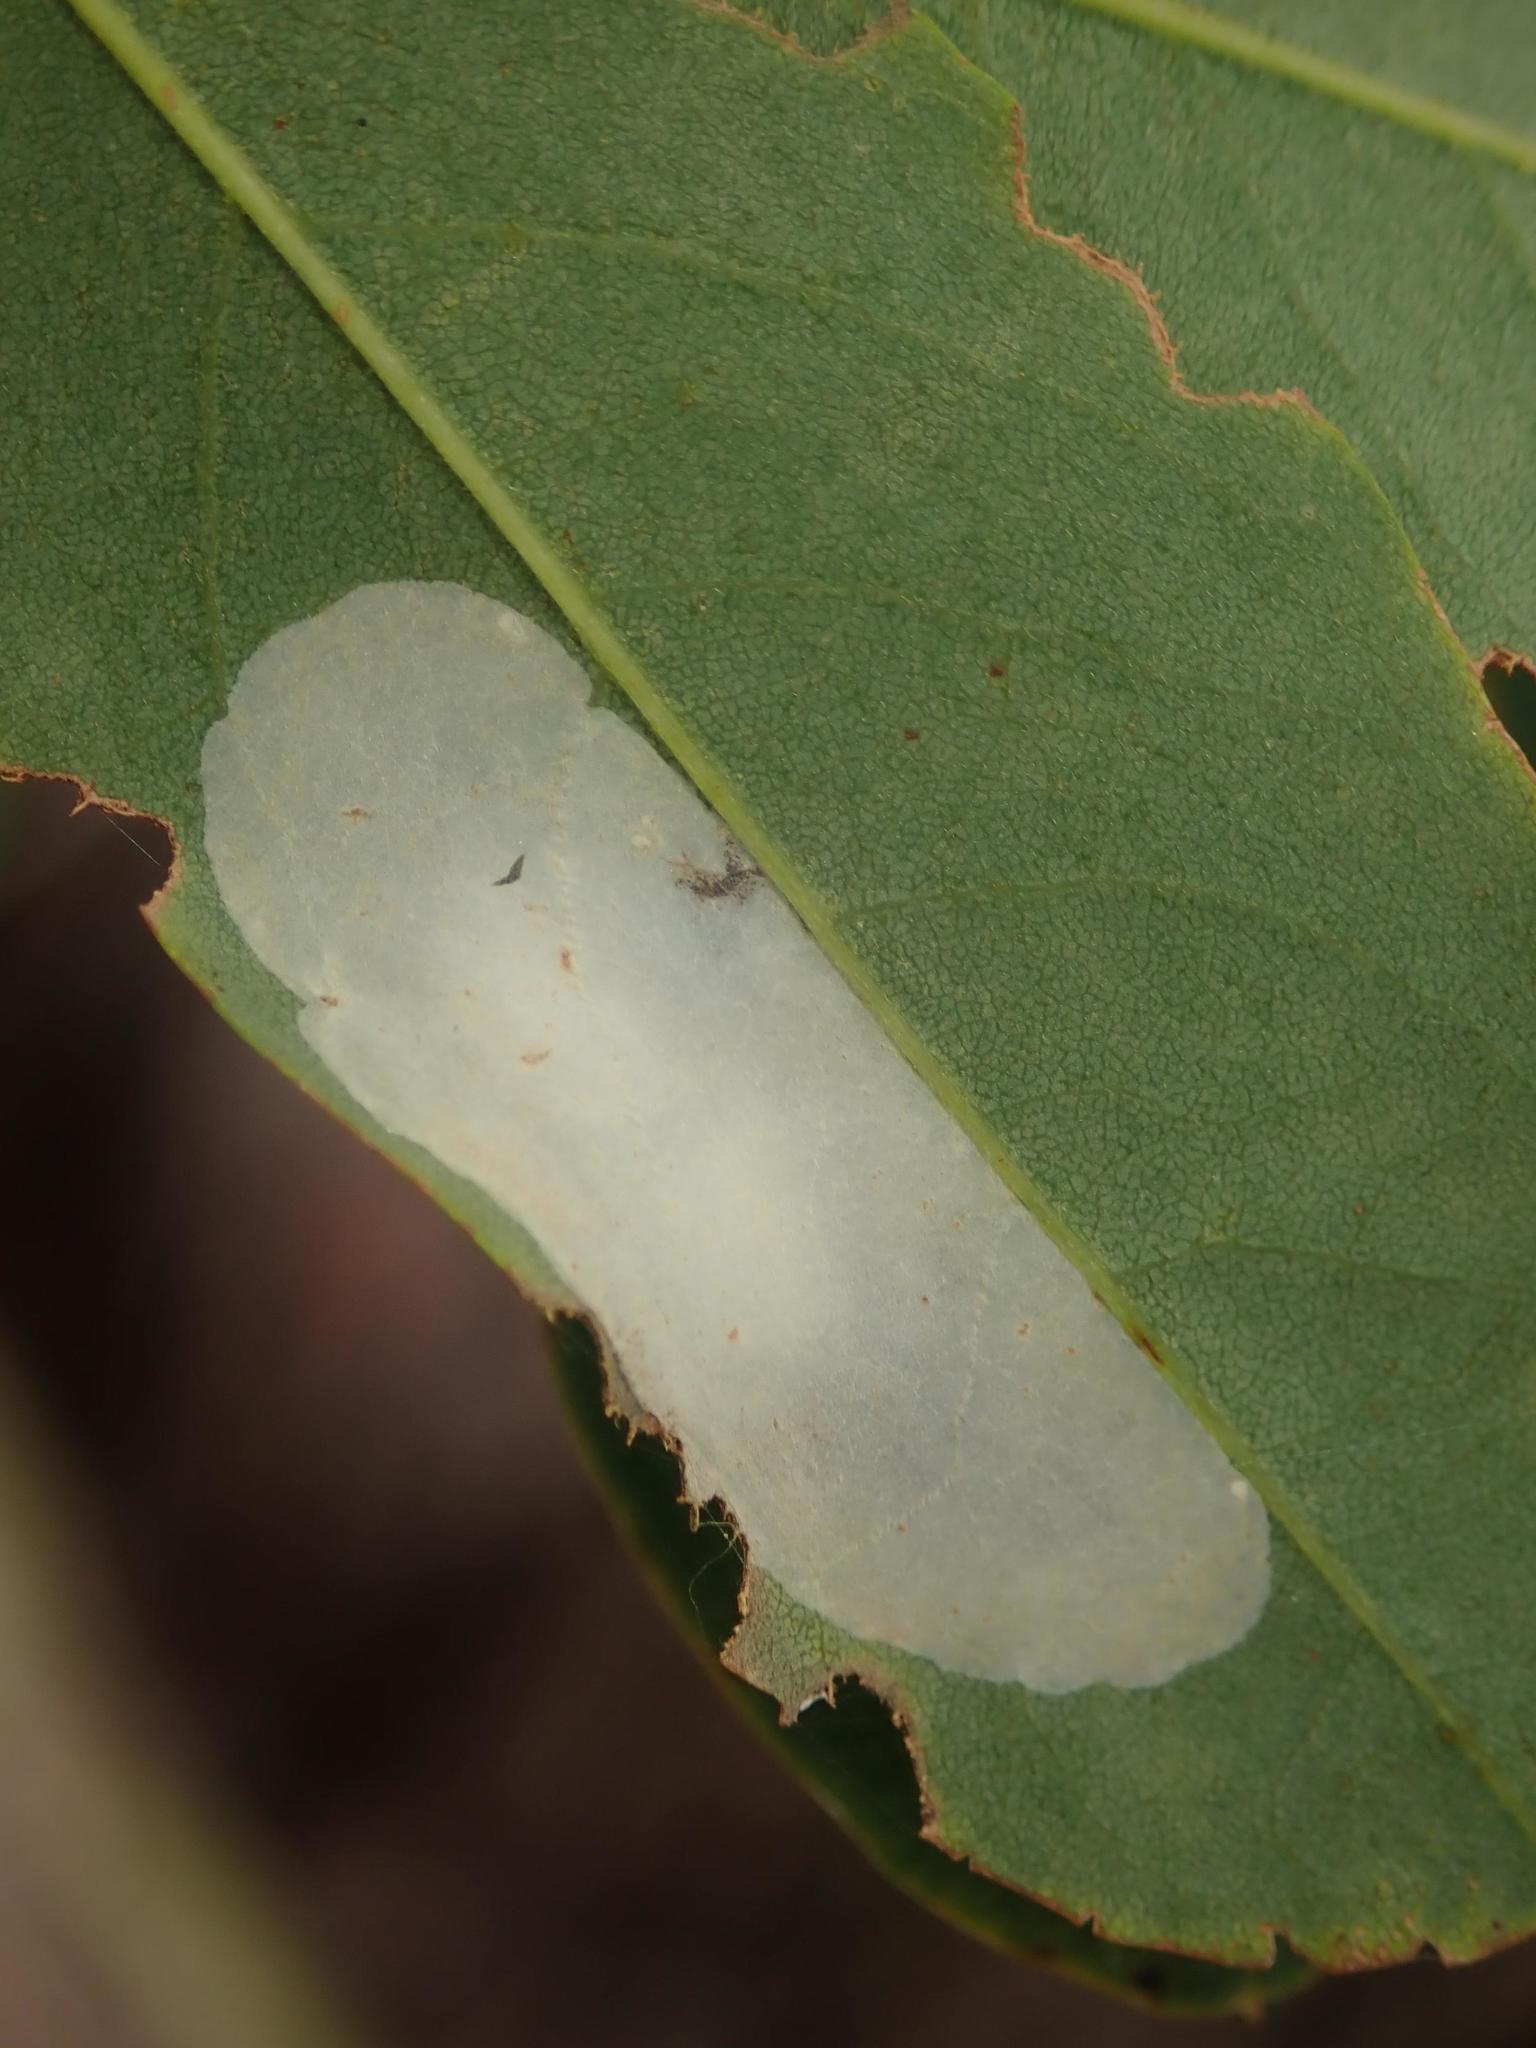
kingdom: Animalia
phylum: Arthropoda
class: Insecta
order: Lepidoptera
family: Gracillariidae
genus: Macrosaccus
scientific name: Macrosaccus robiniella
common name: Leaf blotch miner moth
